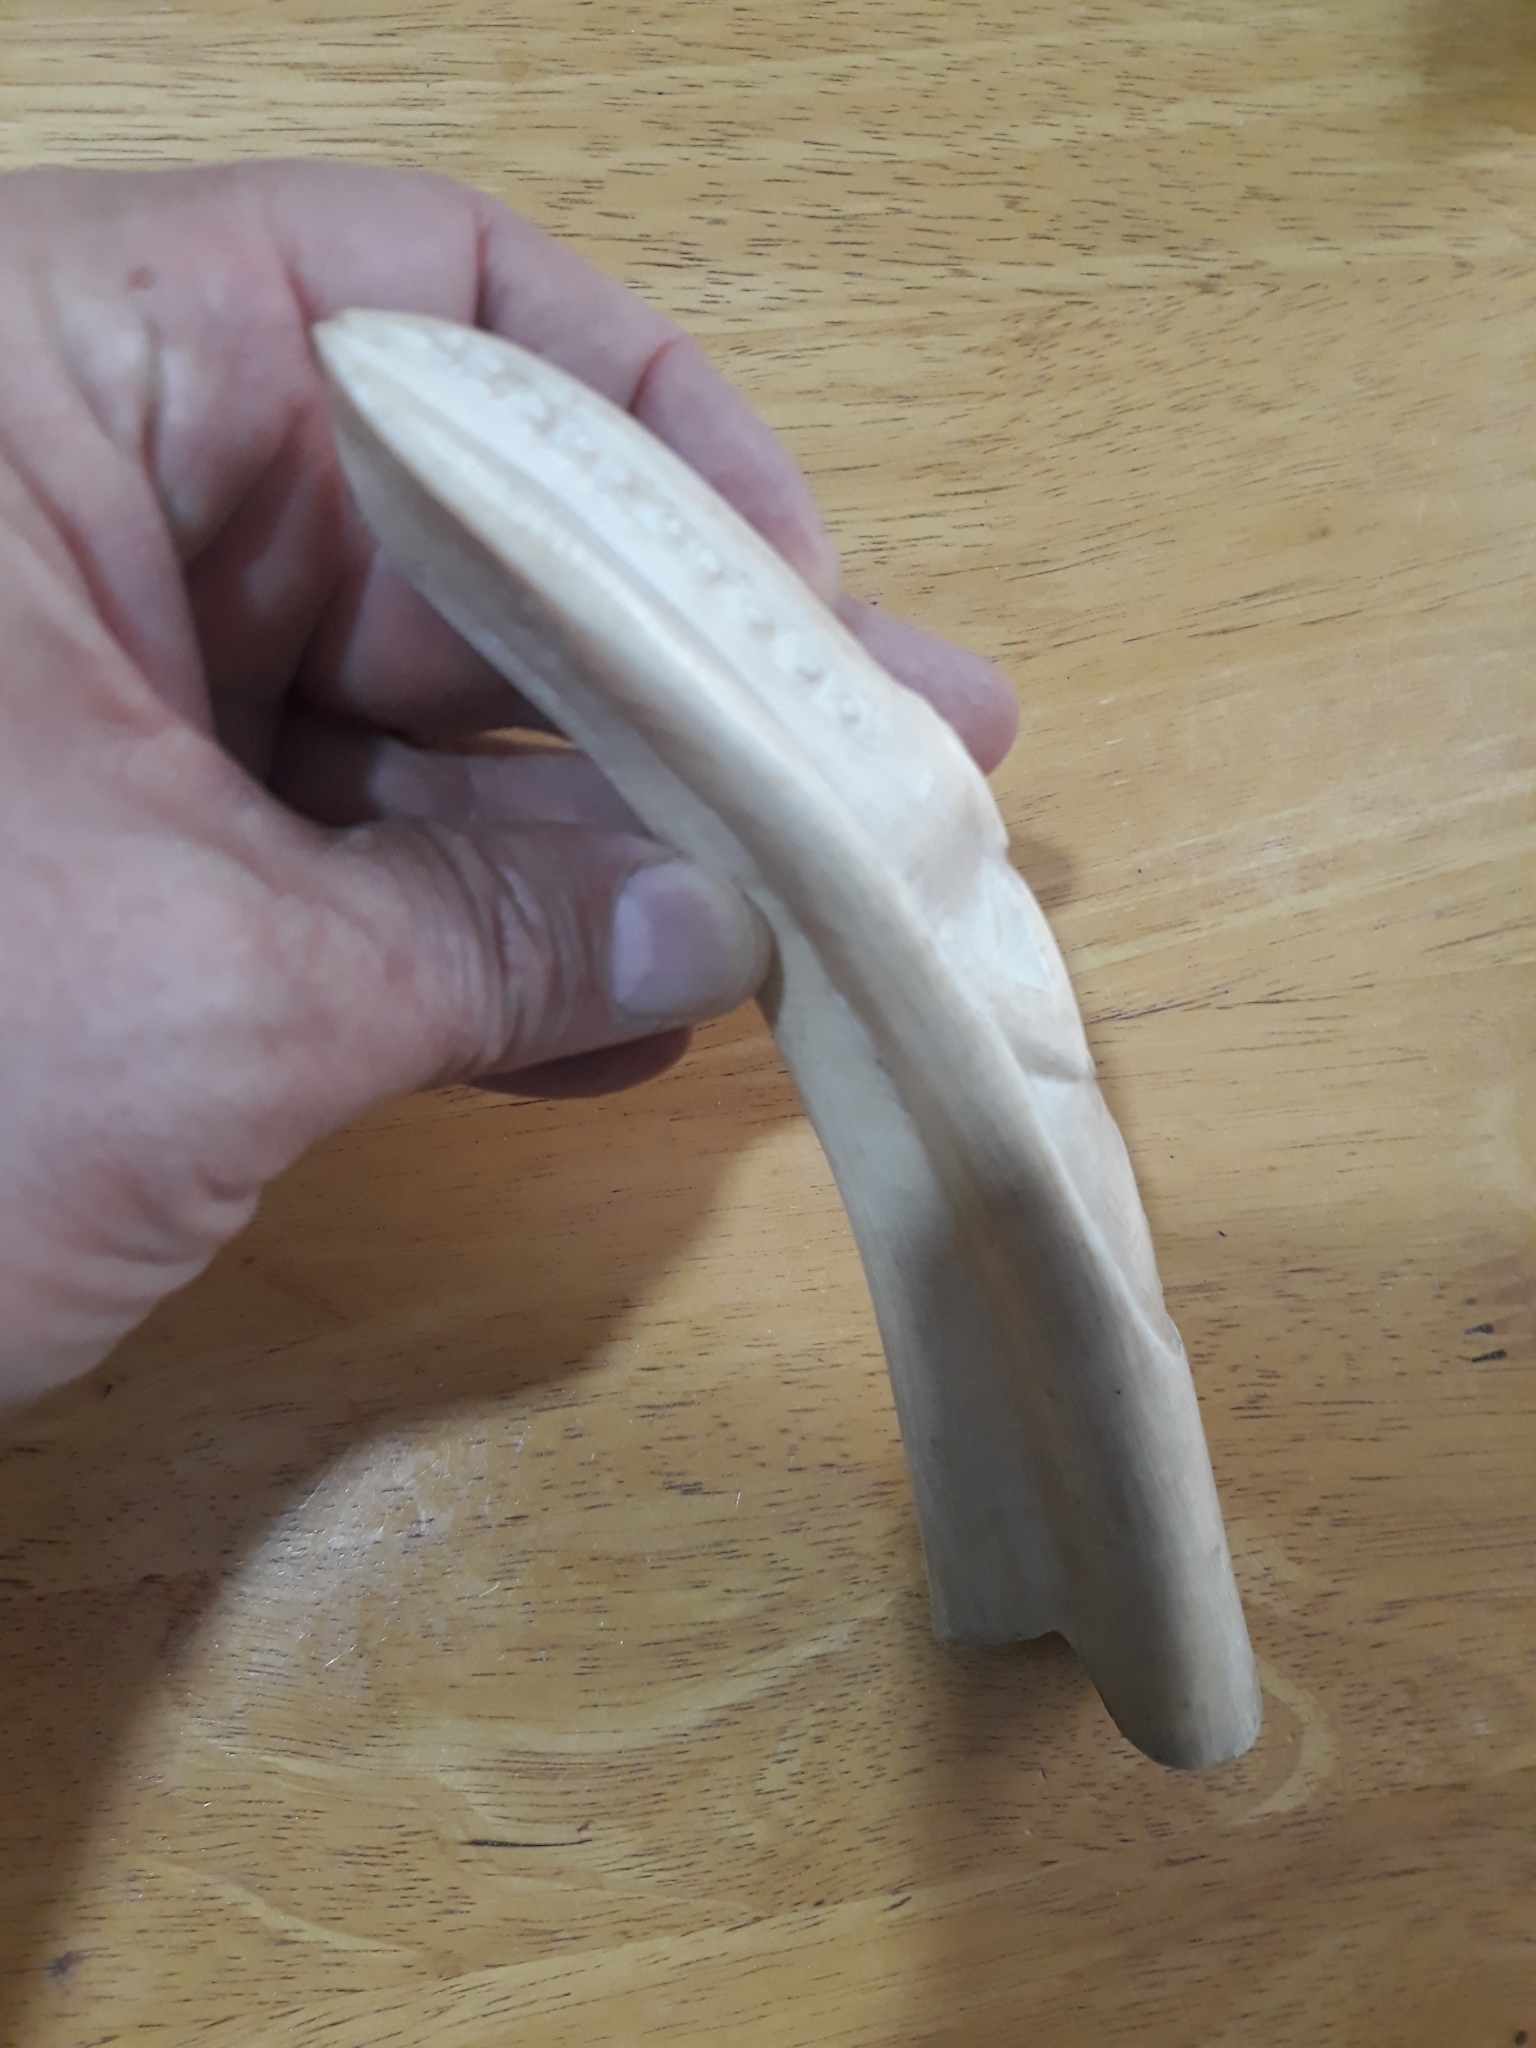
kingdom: Animalia
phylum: Chordata
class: Mammalia
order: Artiodactyla
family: Suidae
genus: Phacochoerus
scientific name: Phacochoerus africanus
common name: Common warthog
